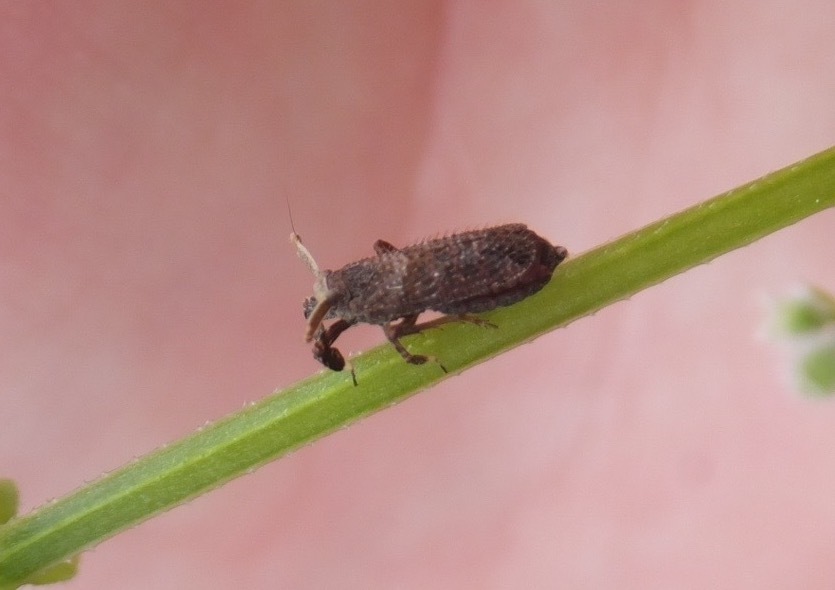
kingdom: Animalia
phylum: Arthropoda
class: Insecta
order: Hemiptera
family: Delphacidae
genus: Asiraca
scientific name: Asiraca clavicornis
